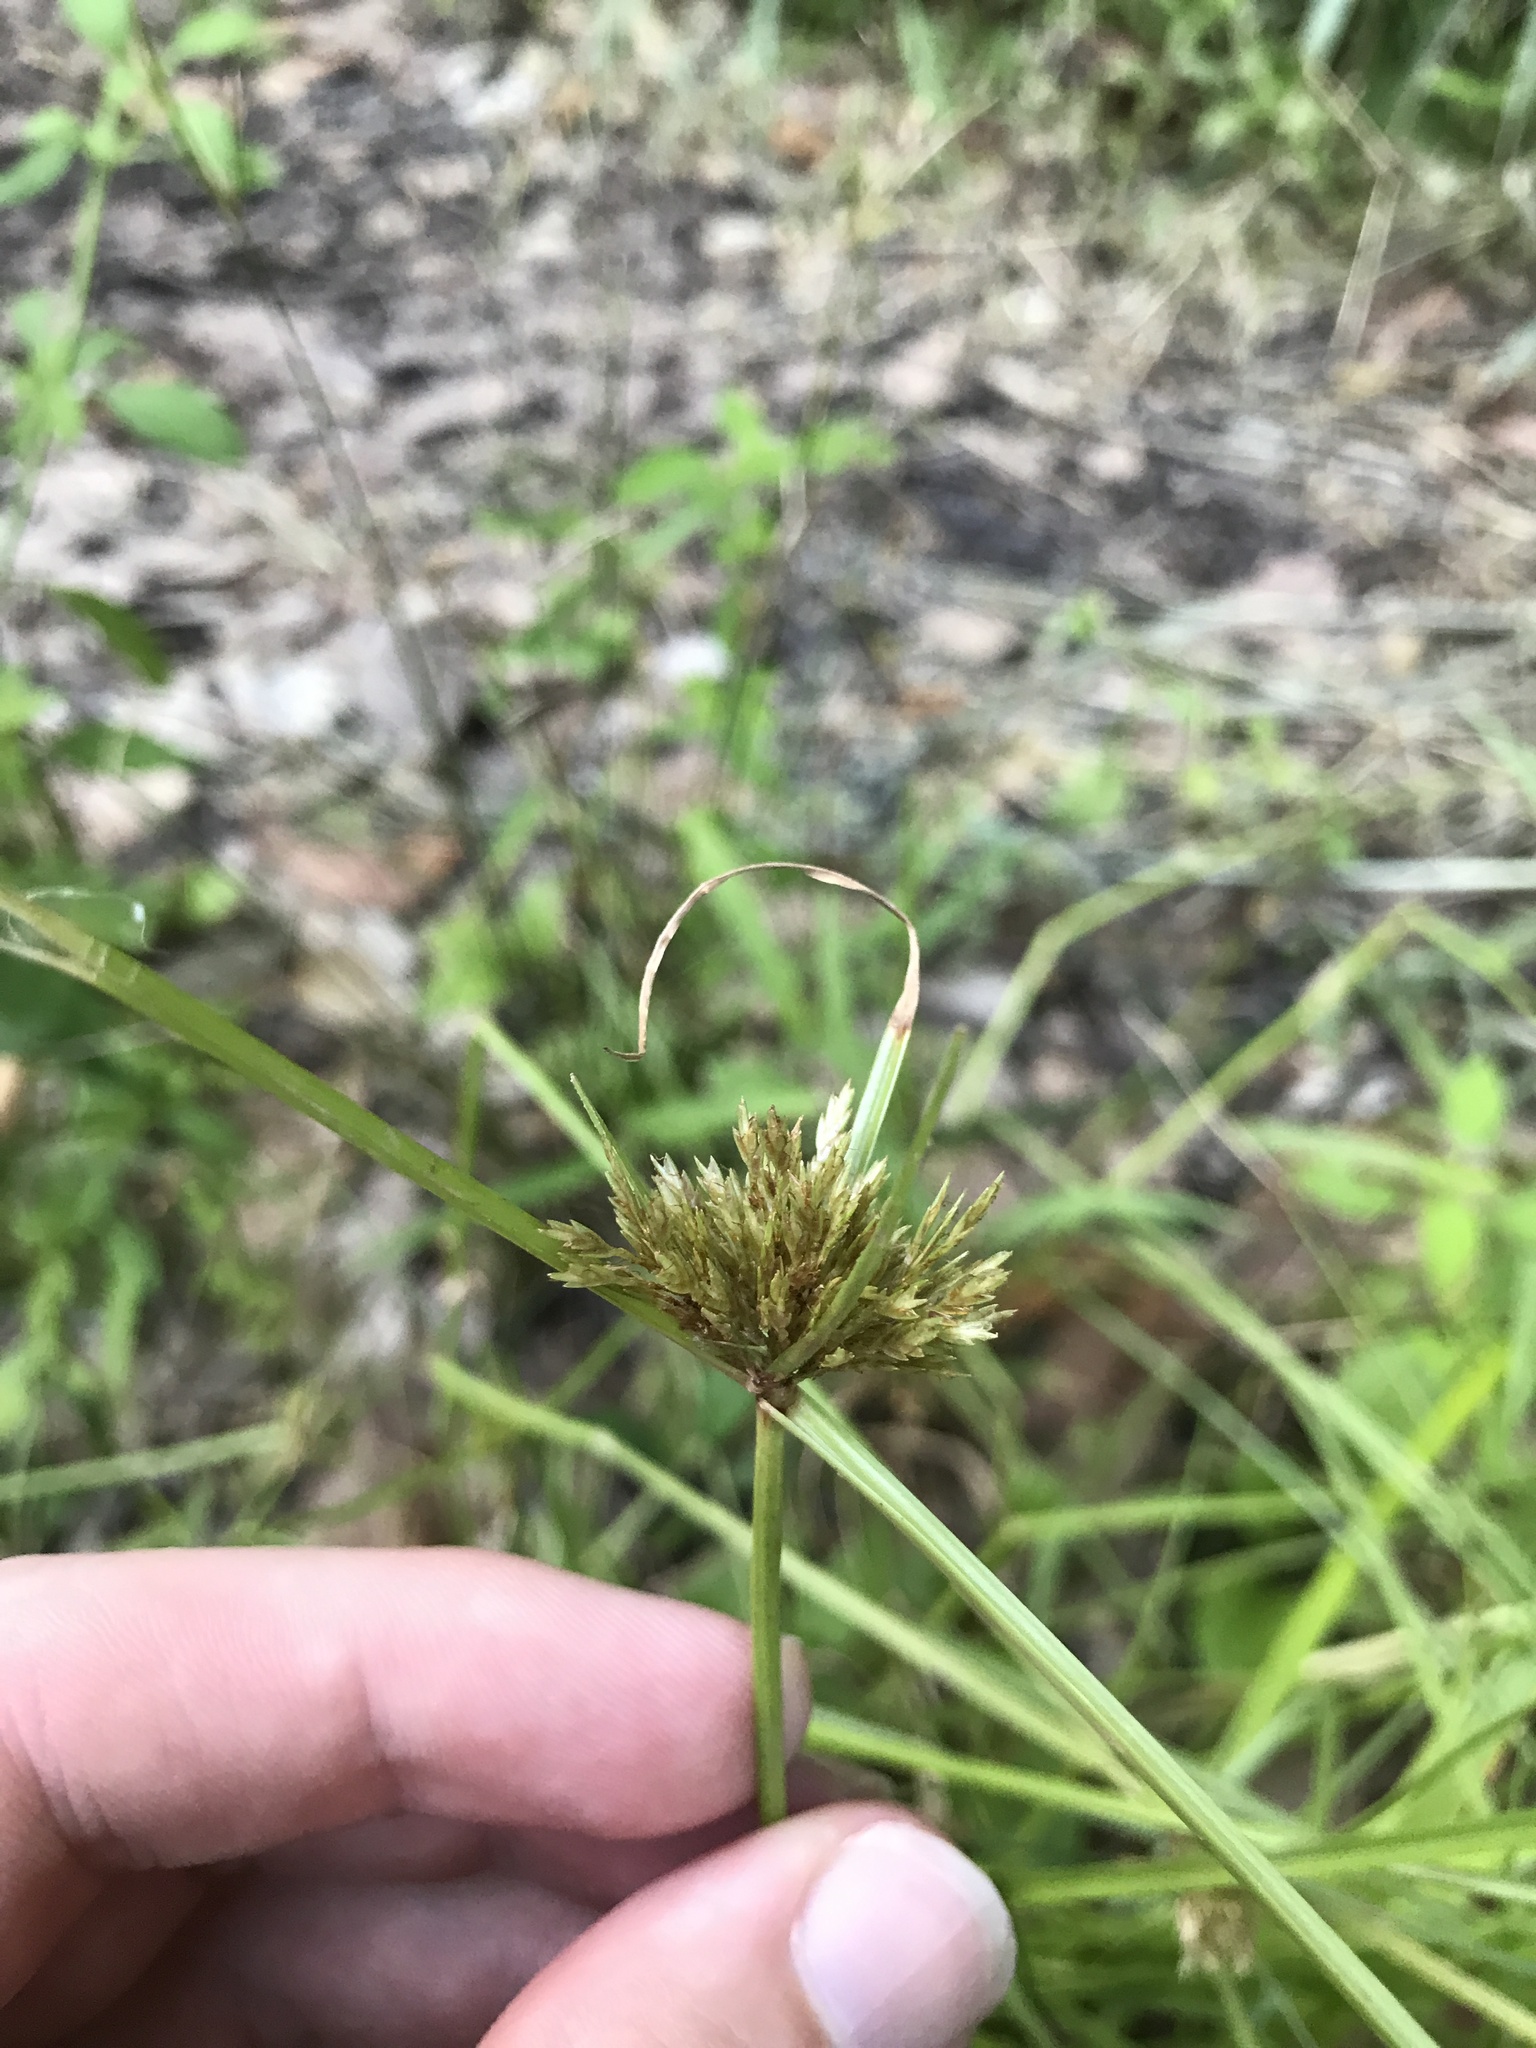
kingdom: Plantae
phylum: Tracheophyta
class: Liliopsida
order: Poales
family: Cyperaceae
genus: Cyperus
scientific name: Cyperus polystachyos
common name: Bunchy flat sedge
